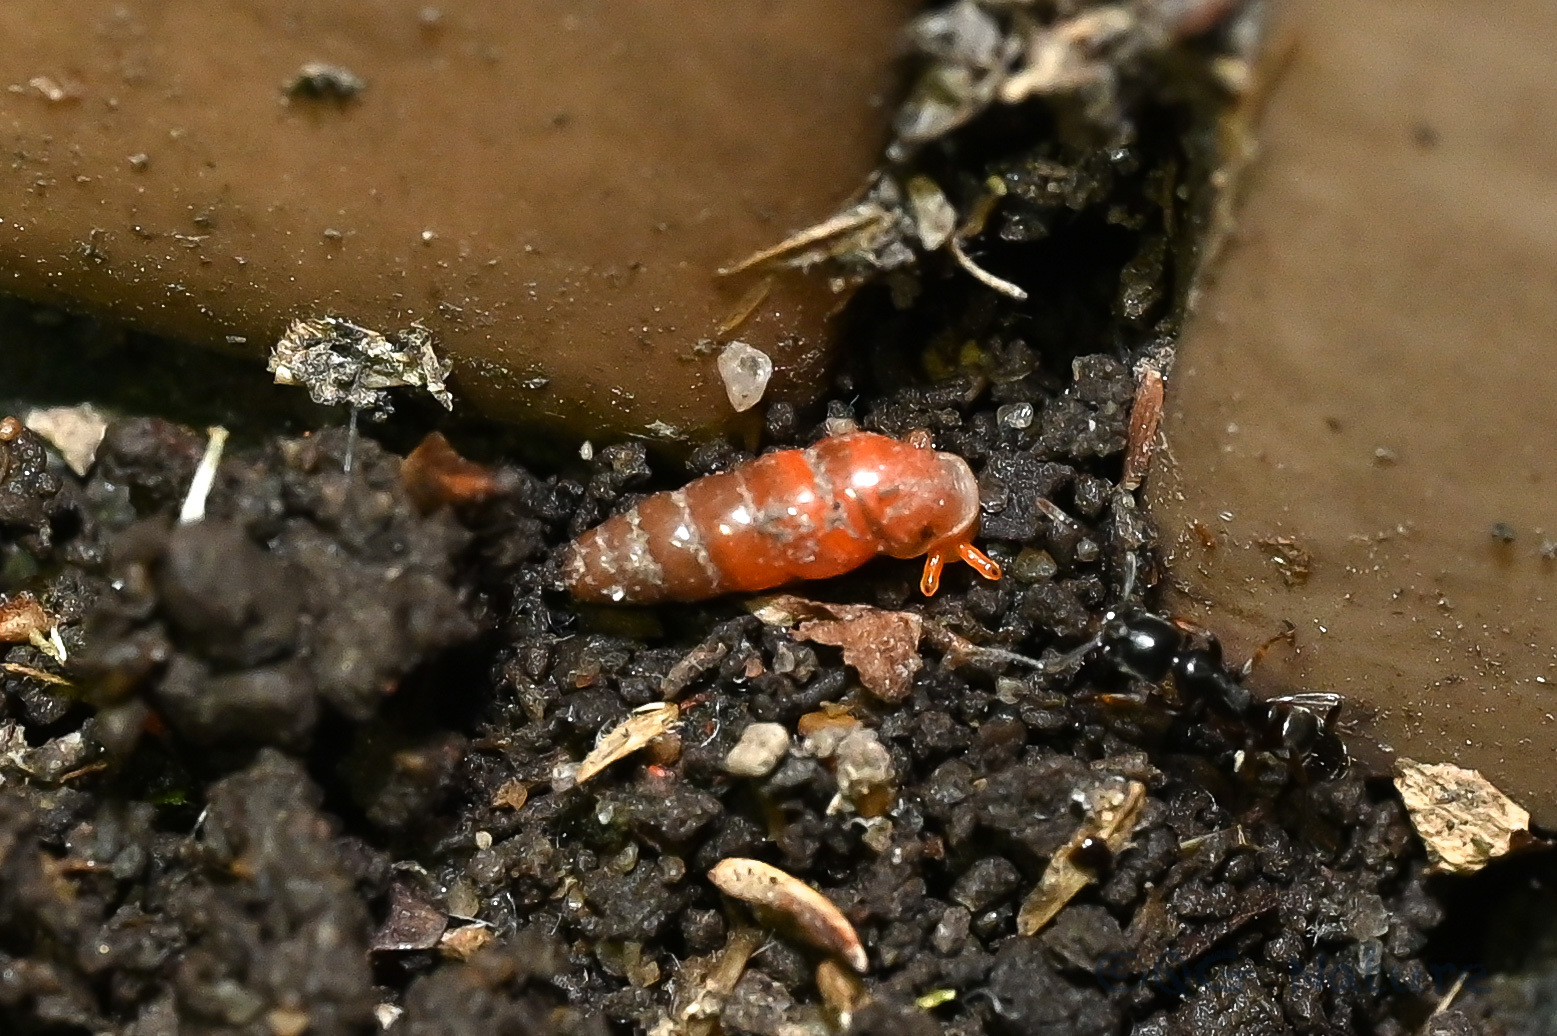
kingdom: Animalia
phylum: Mollusca
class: Gastropoda
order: Stylommatophora
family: Streptaxidae
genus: Gulella
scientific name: Gulella bicolor
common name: Snail
